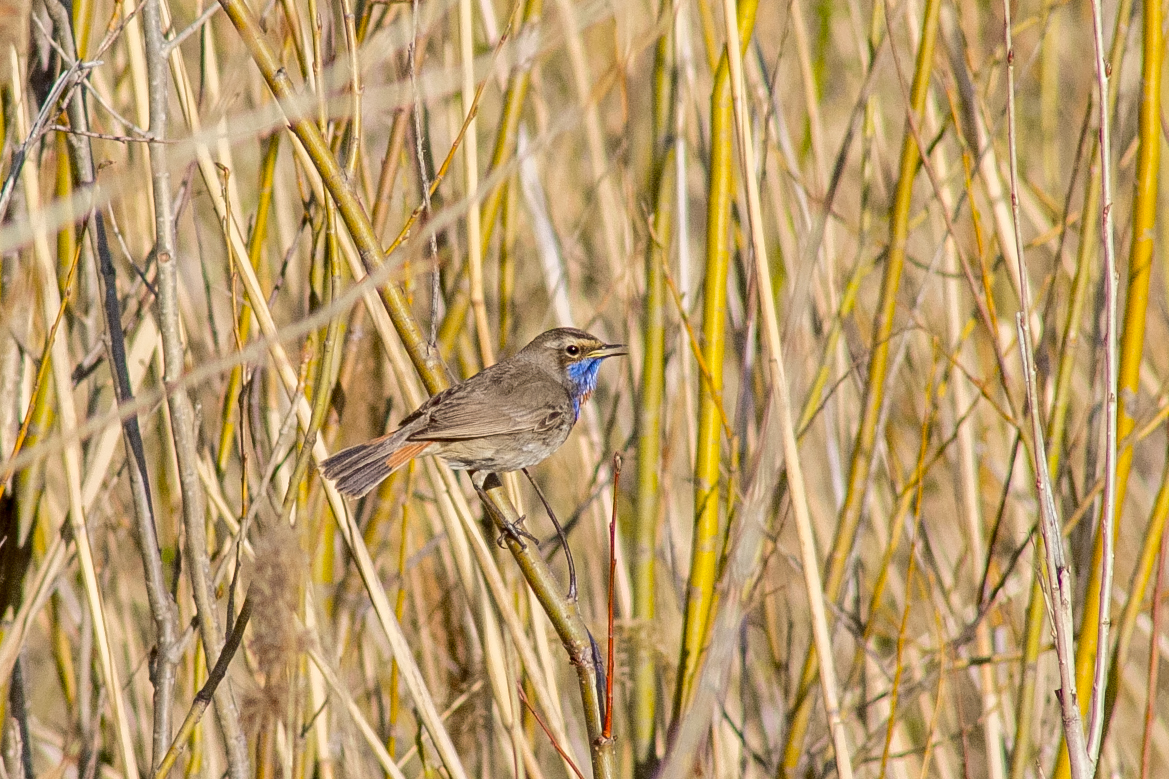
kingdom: Animalia
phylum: Chordata
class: Aves
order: Passeriformes
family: Muscicapidae
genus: Luscinia
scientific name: Luscinia svecica
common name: Bluethroat
